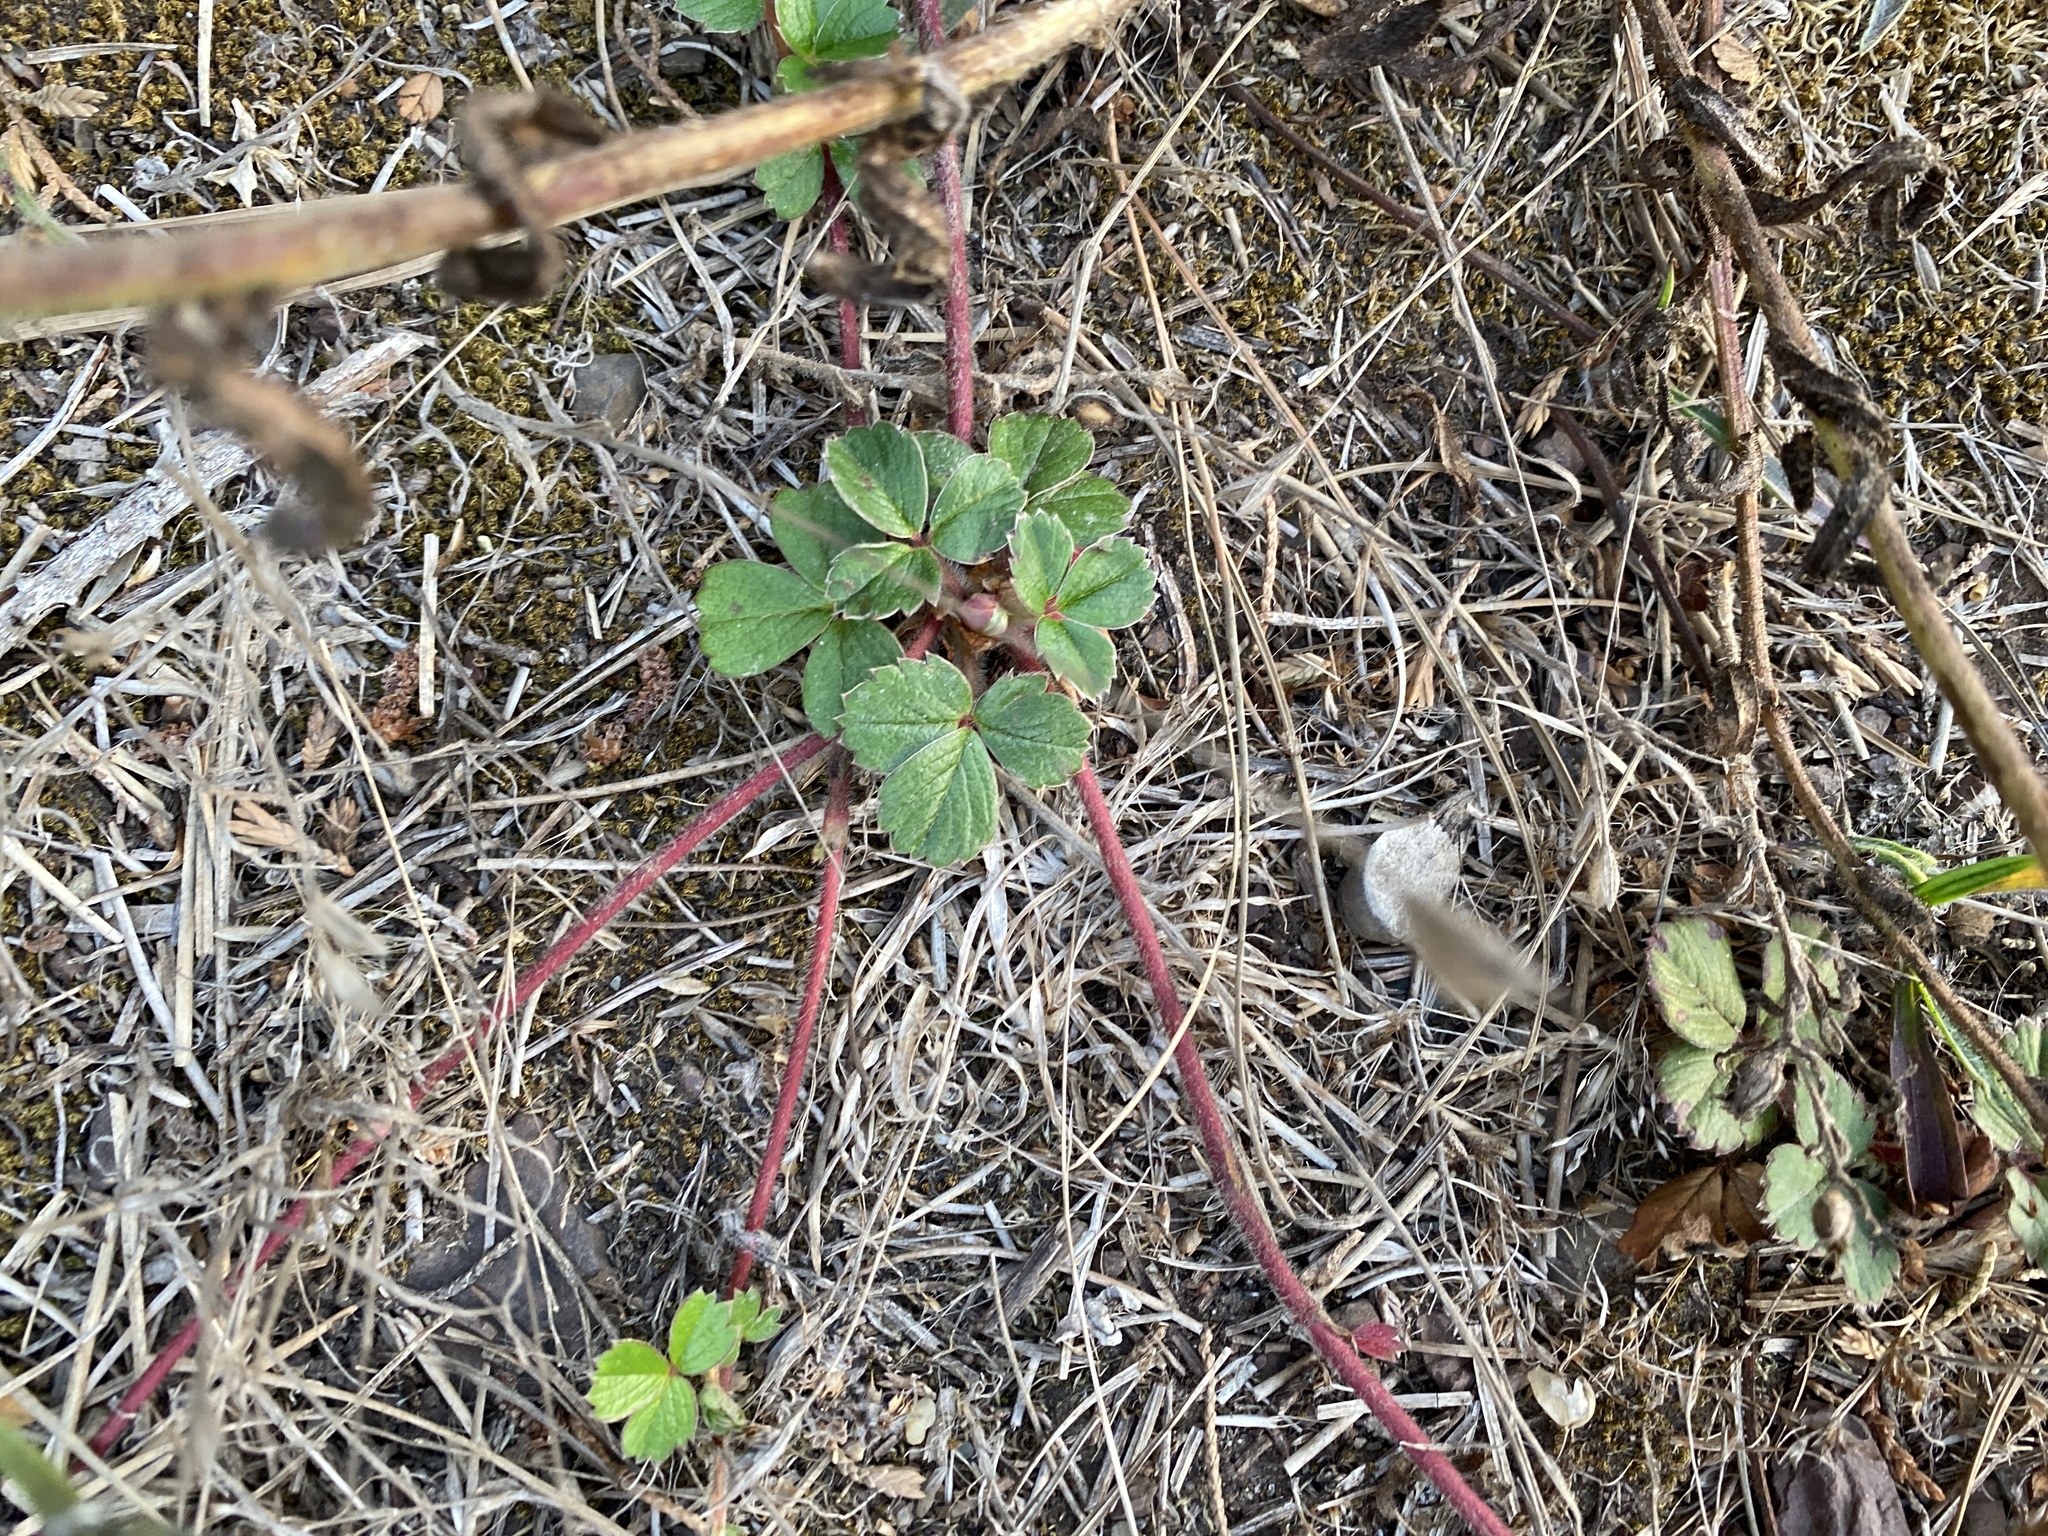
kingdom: Plantae
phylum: Tracheophyta
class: Magnoliopsida
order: Rosales
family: Rosaceae
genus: Fragaria
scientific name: Fragaria chiloensis
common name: Beach strawberry
